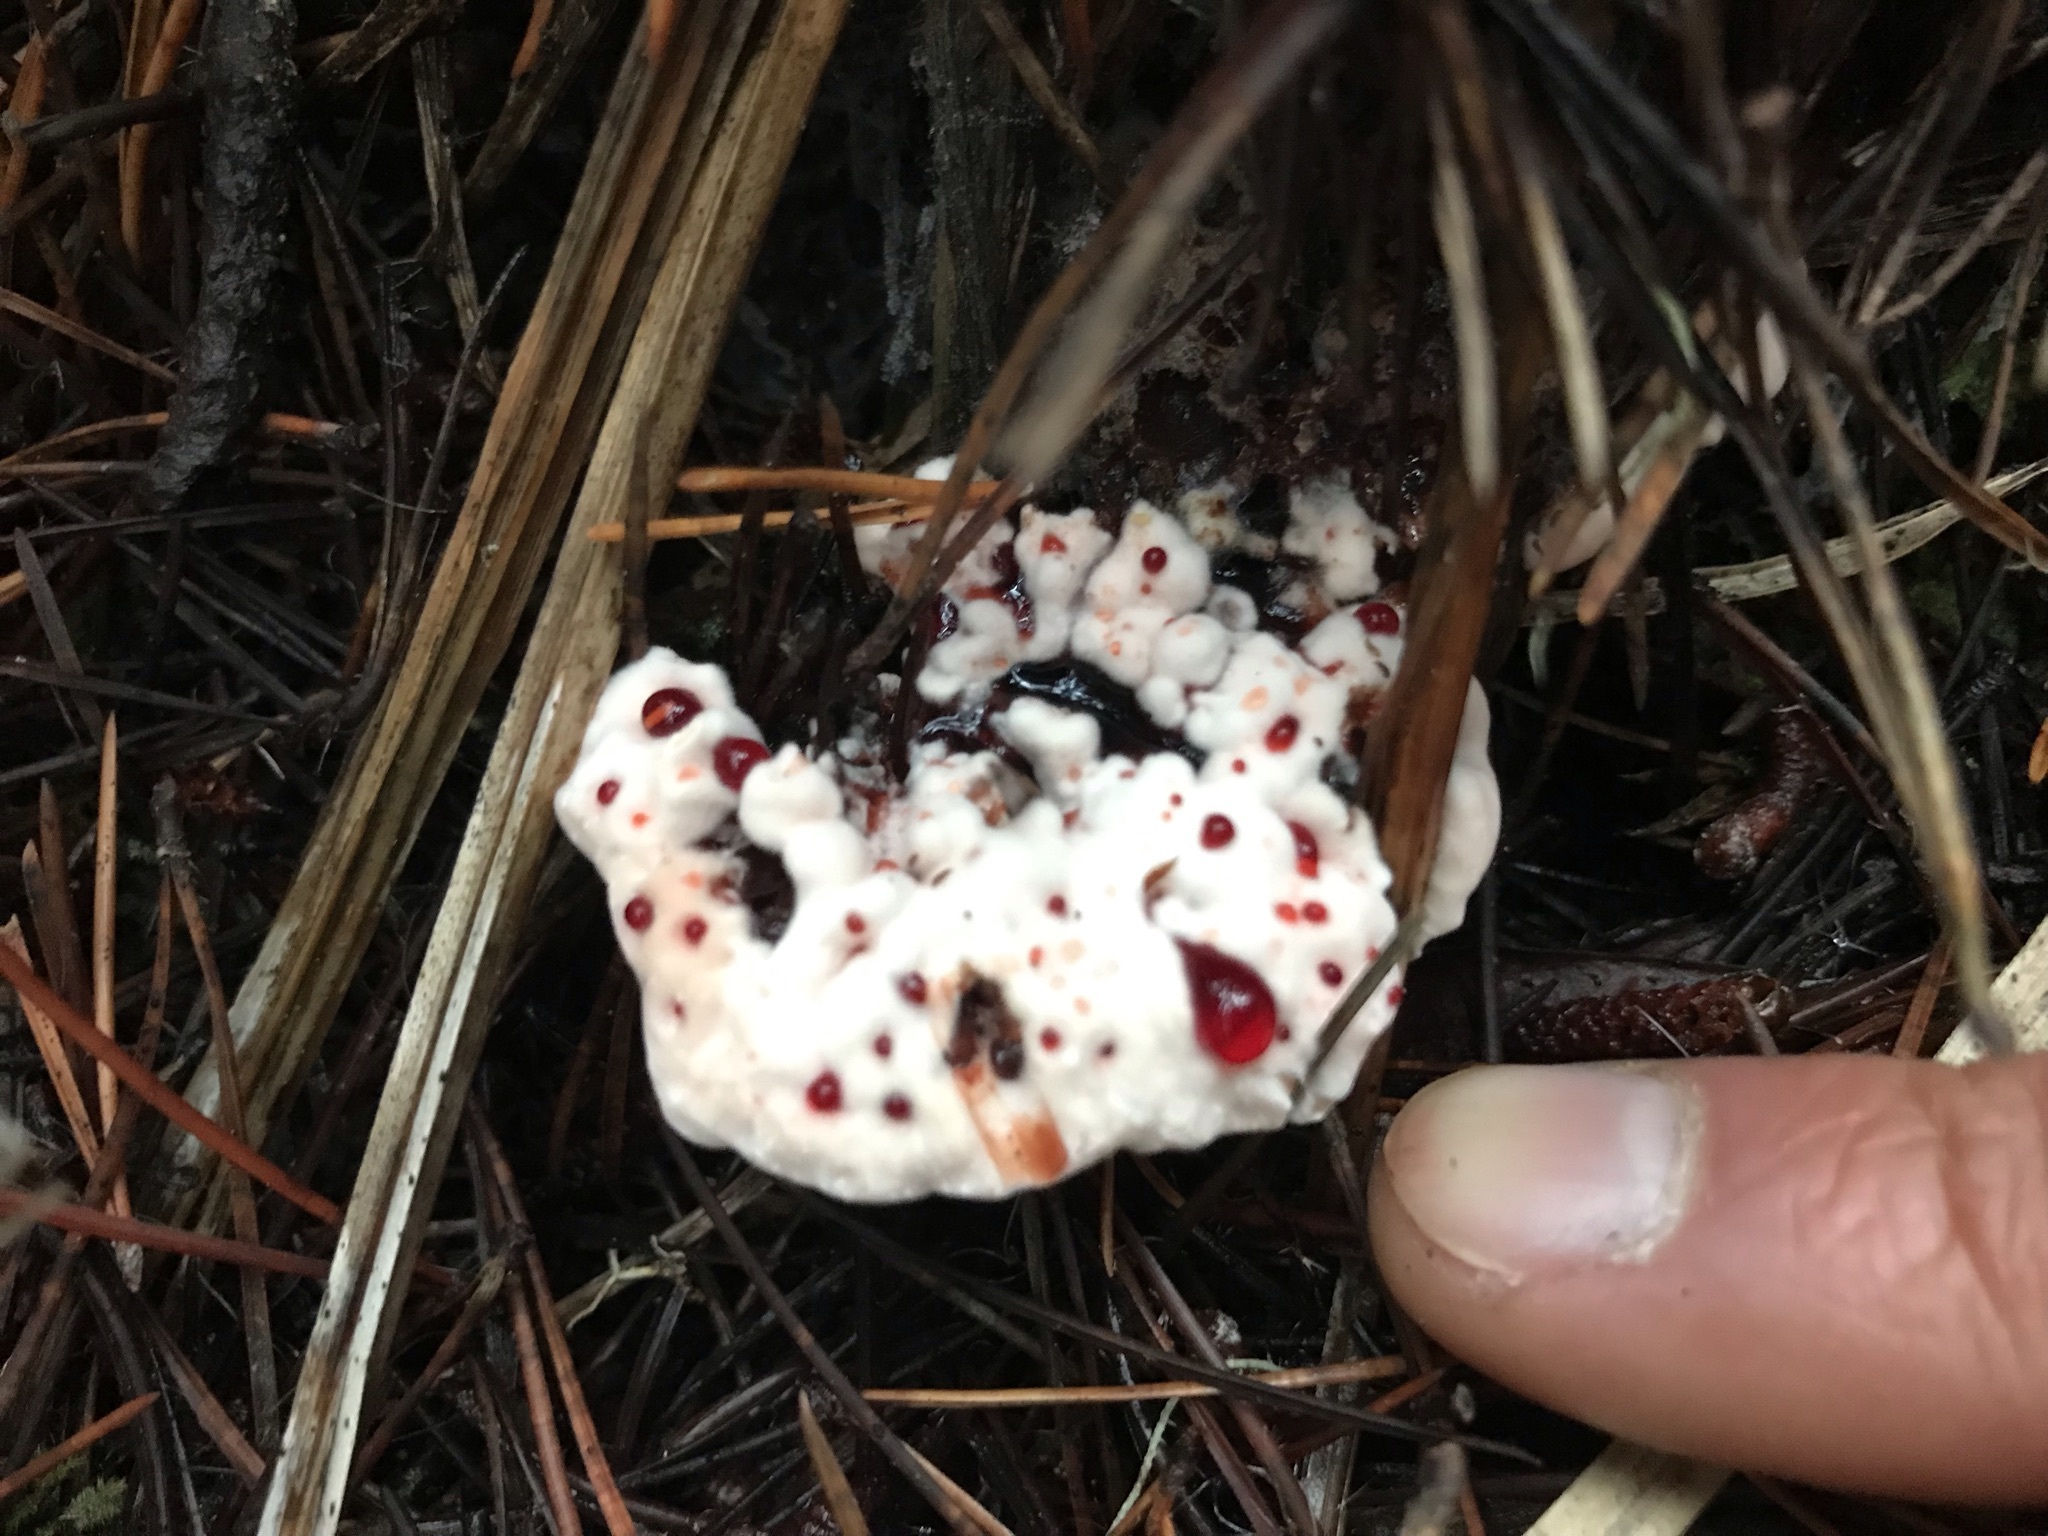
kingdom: Fungi
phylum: Basidiomycota
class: Agaricomycetes
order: Thelephorales
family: Bankeraceae
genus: Hydnellum
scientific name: Hydnellum peckii
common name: Devil's tooth
